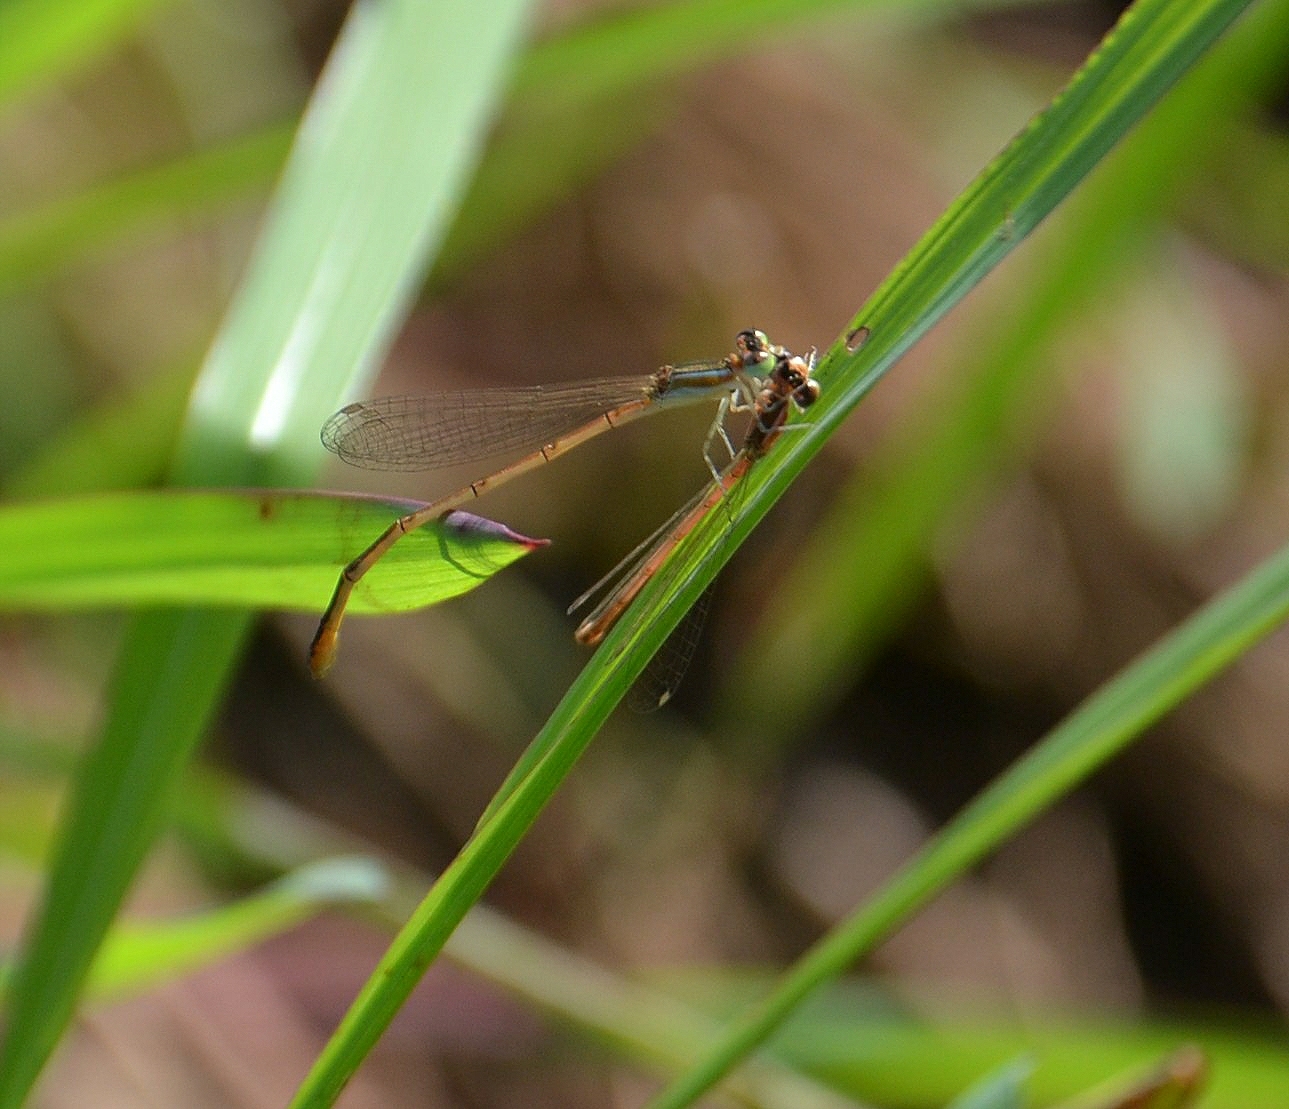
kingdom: Animalia
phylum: Arthropoda
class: Insecta
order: Odonata
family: Coenagrionidae
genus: Agriocnemis
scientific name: Agriocnemis pygmaea
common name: Pygmy wisp
